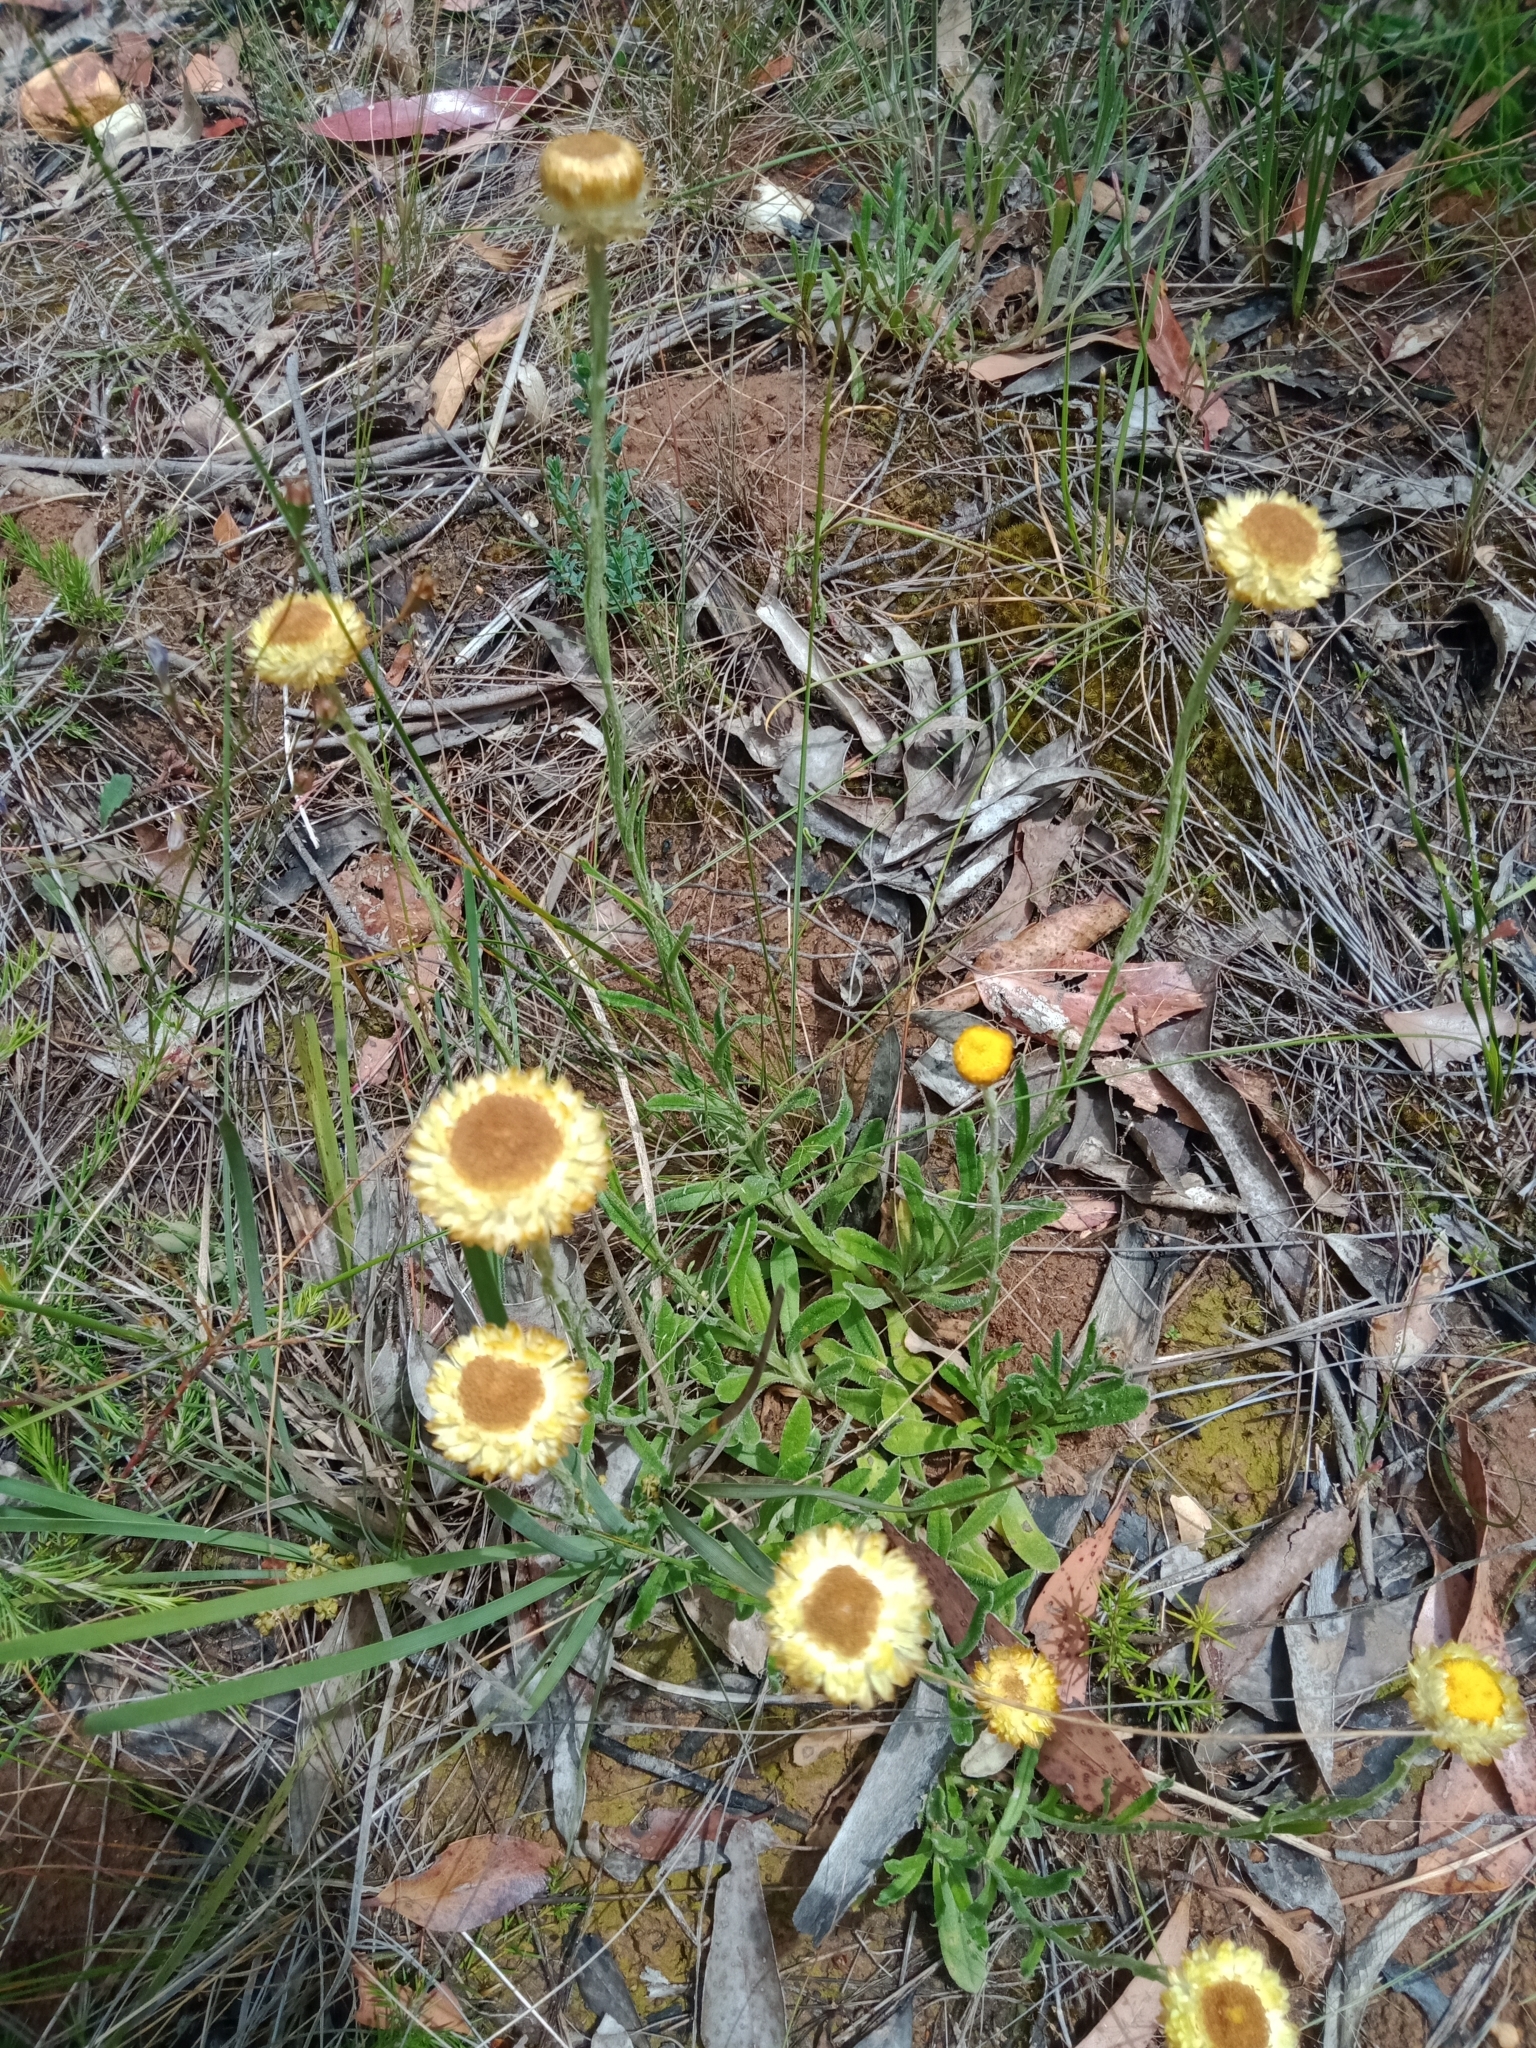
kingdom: Plantae
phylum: Tracheophyta
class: Magnoliopsida
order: Asterales
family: Asteraceae
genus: Coronidium
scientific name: Coronidium scorpioides
